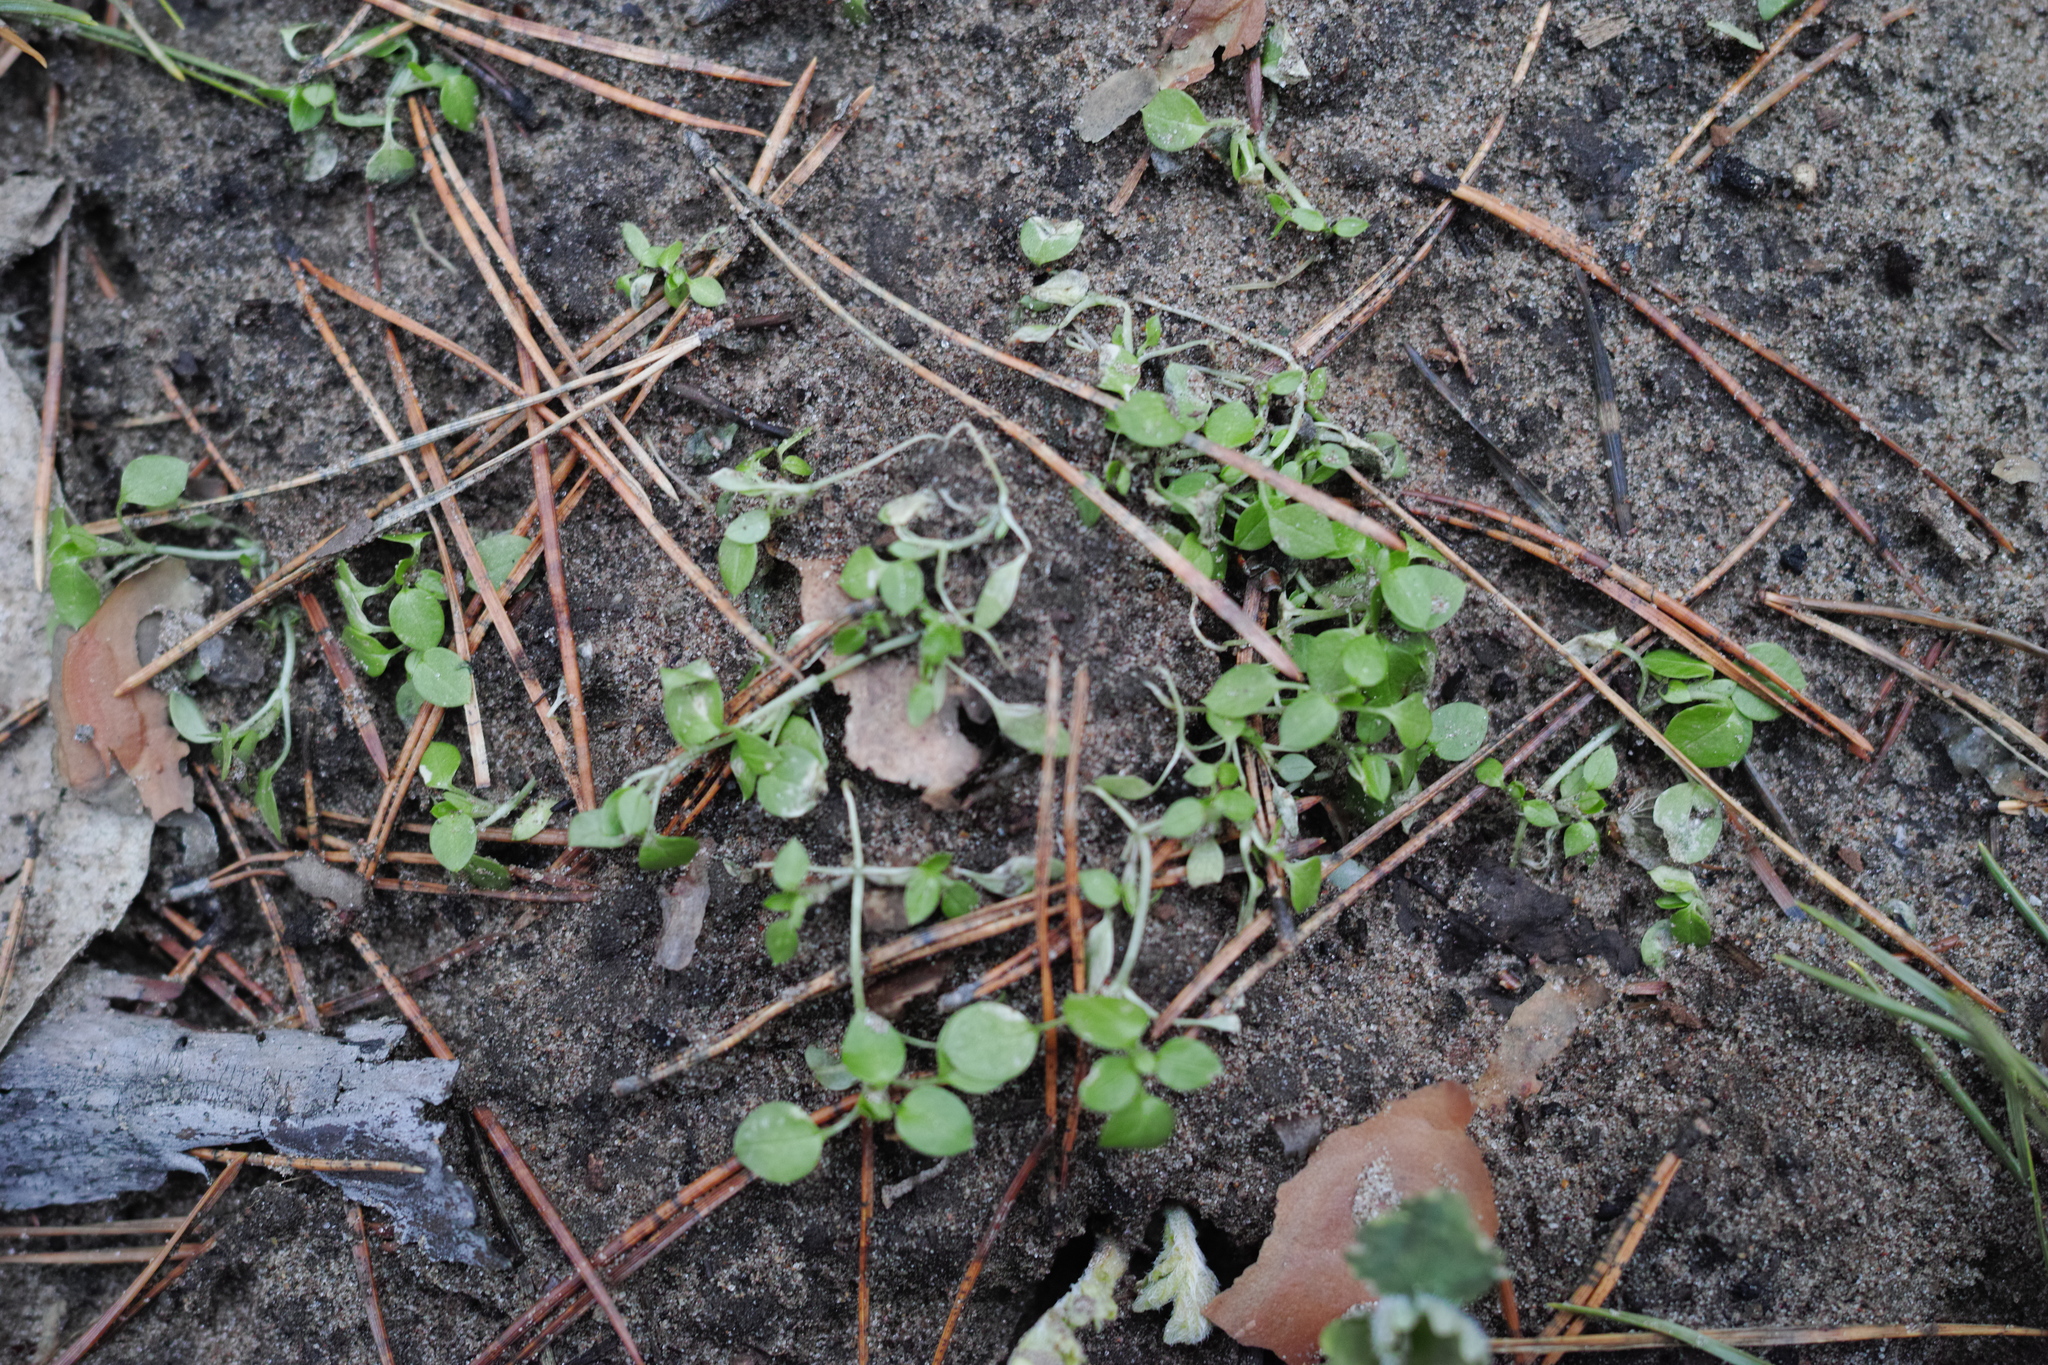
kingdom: Plantae
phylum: Tracheophyta
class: Magnoliopsida
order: Caryophyllales
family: Caryophyllaceae
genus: Stellaria
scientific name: Stellaria media
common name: Common chickweed
